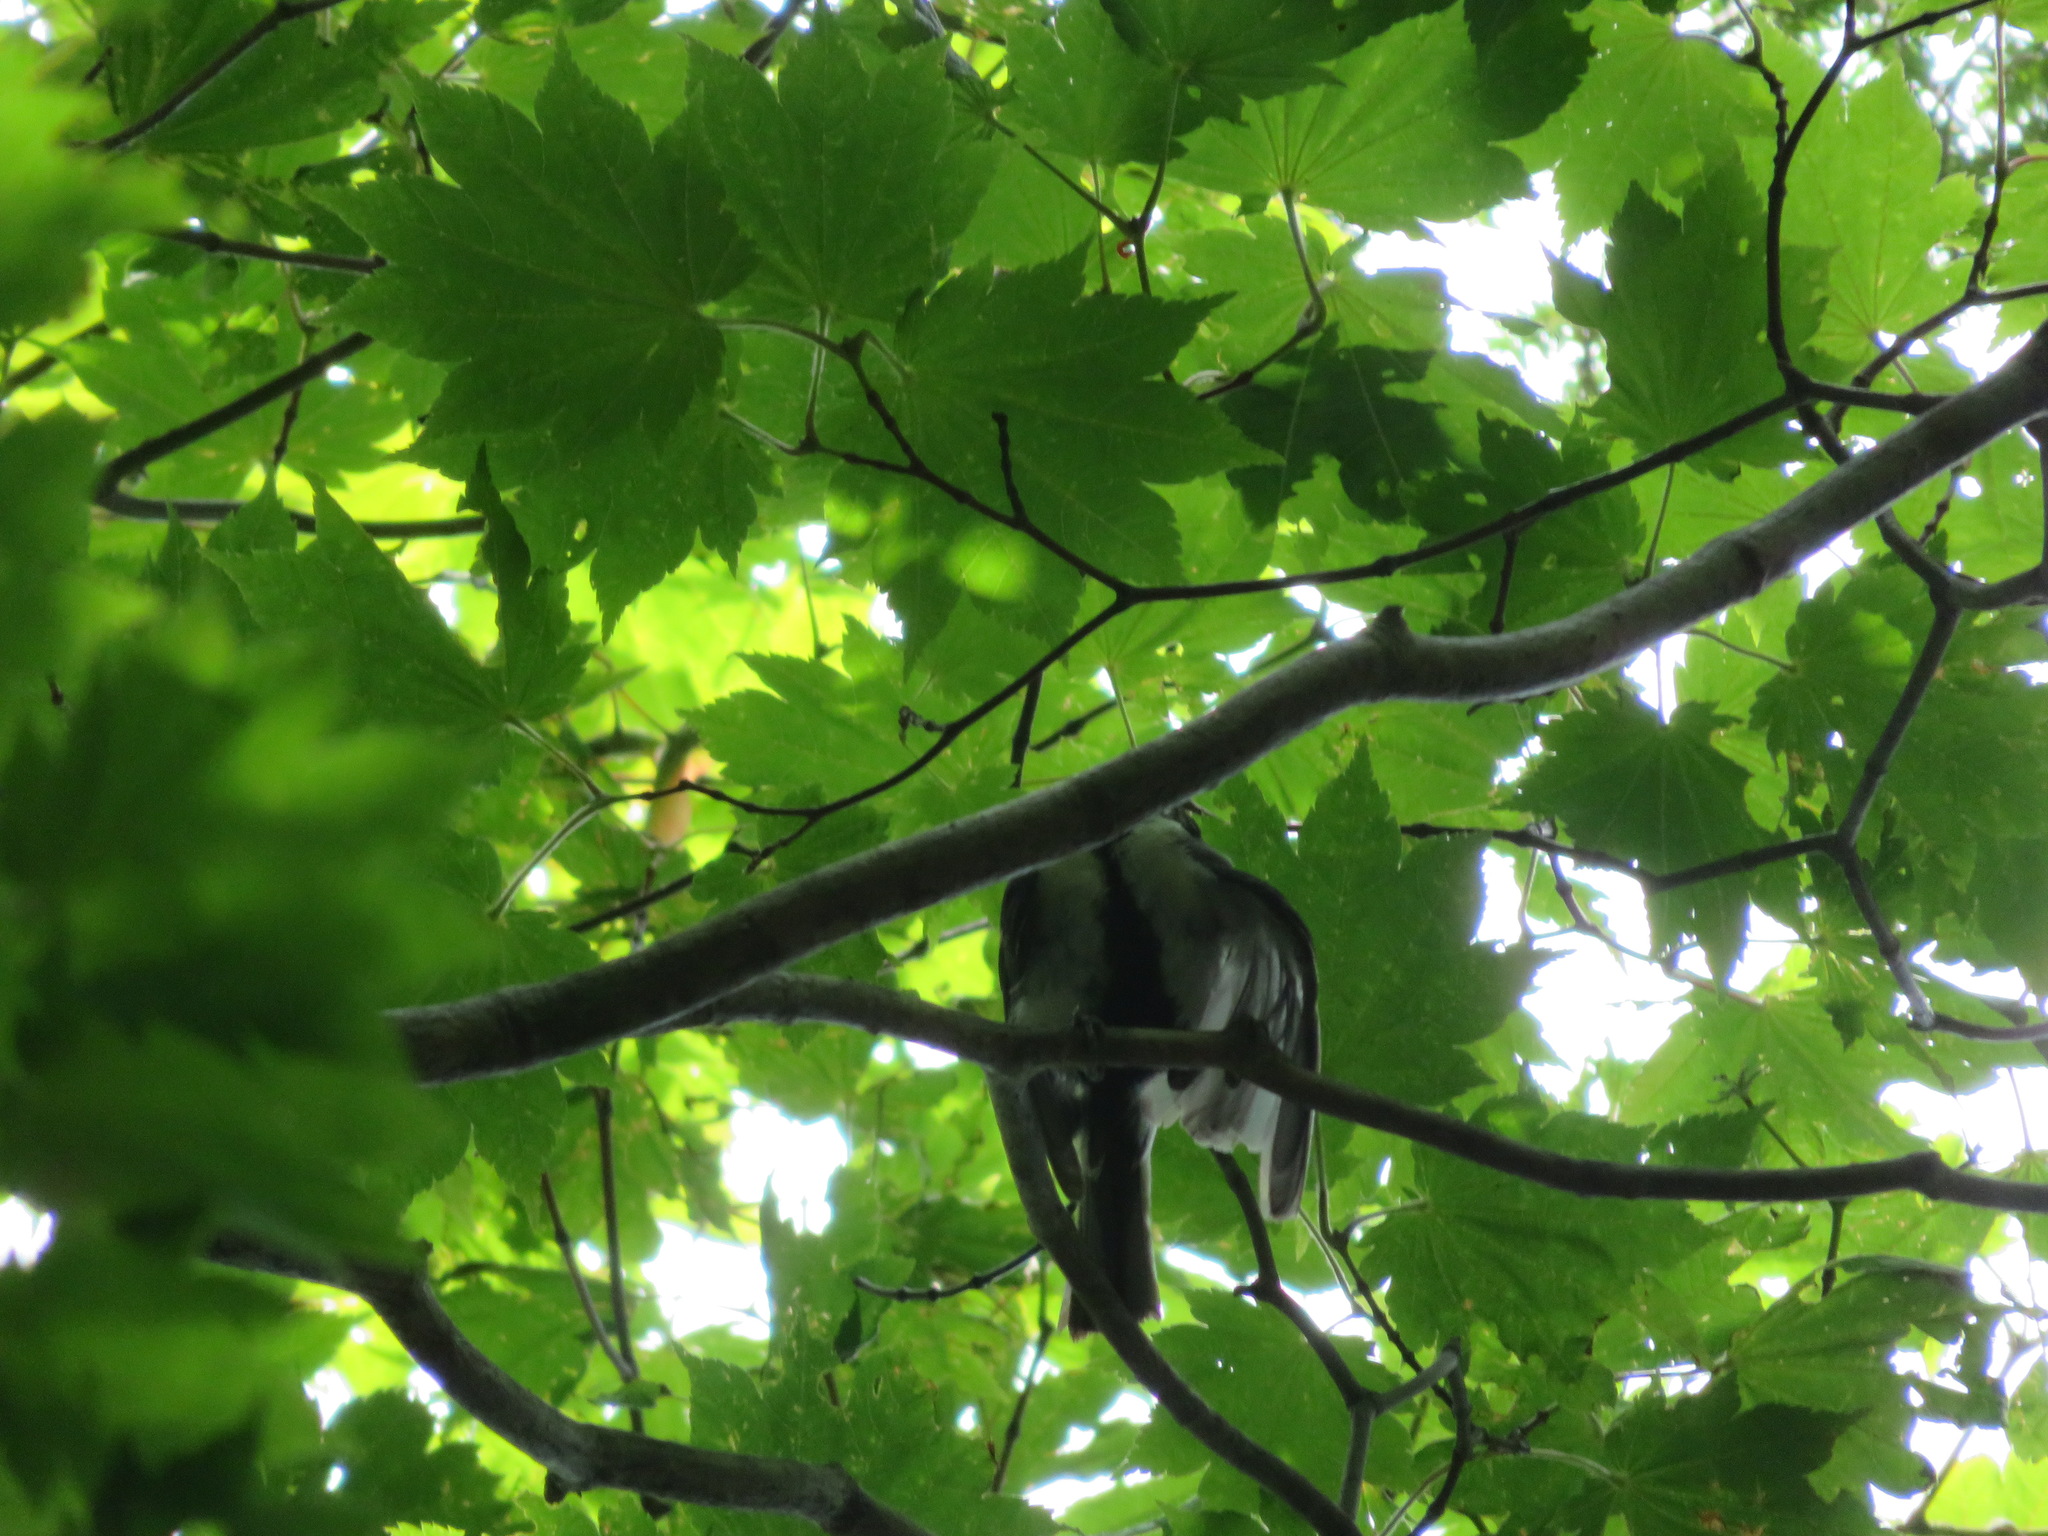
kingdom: Animalia
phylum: Chordata
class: Aves
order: Passeriformes
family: Paridae
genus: Parus
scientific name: Parus minor
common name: Japanese tit
